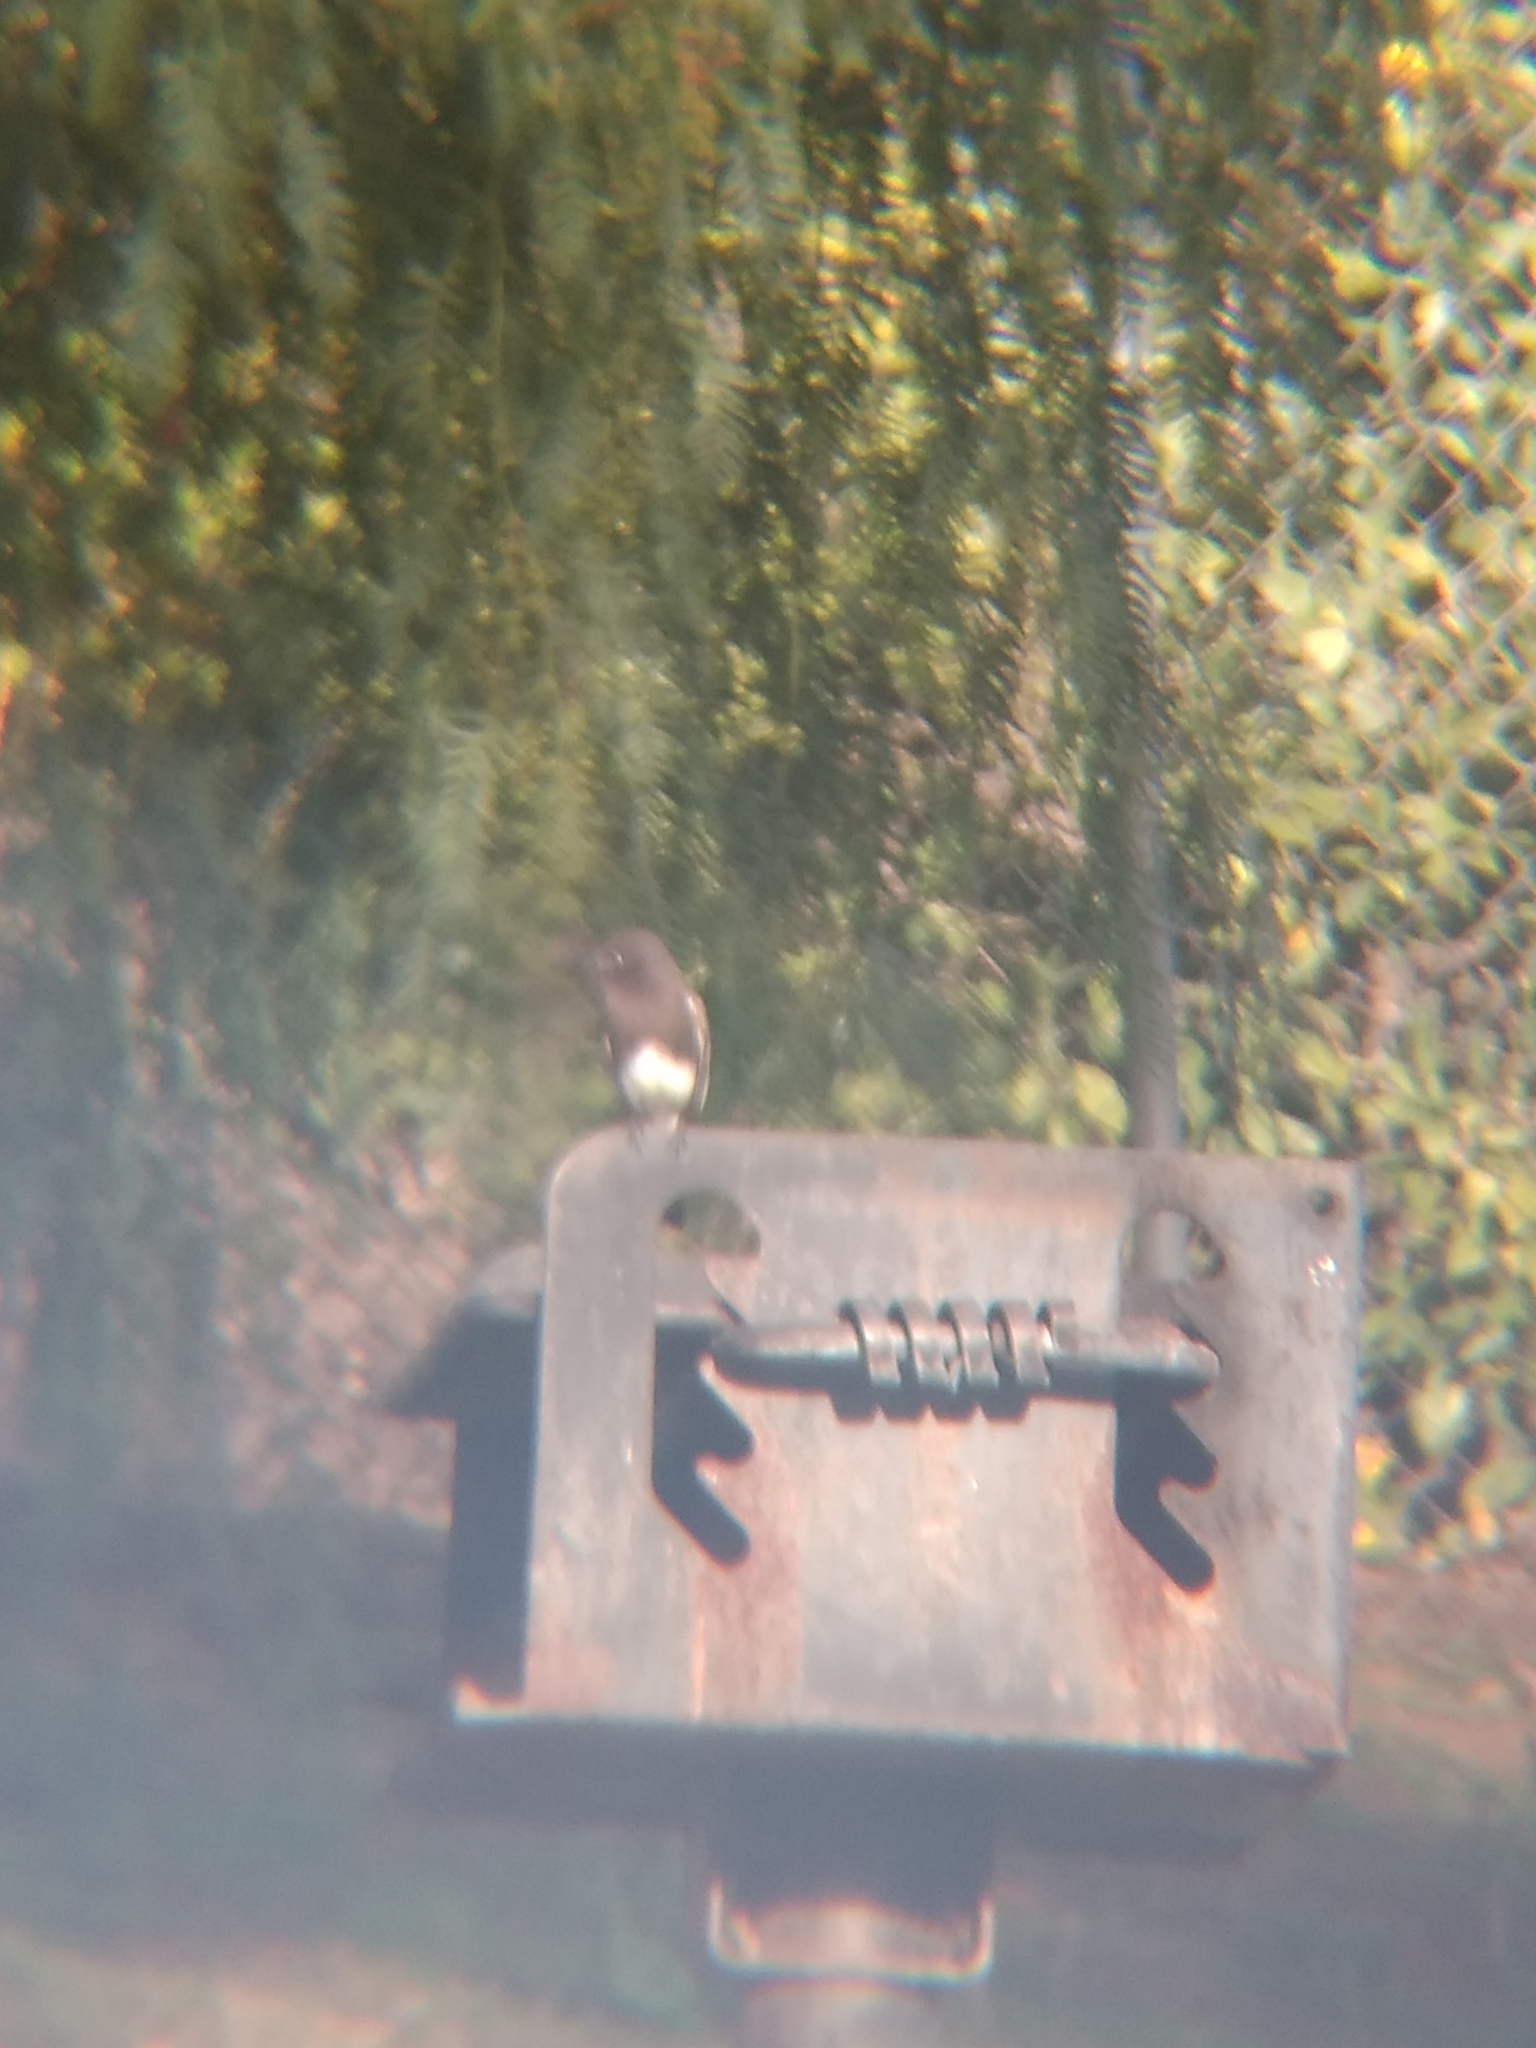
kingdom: Animalia
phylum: Chordata
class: Aves
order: Passeriformes
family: Tyrannidae
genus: Sayornis
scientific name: Sayornis nigricans
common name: Black phoebe
